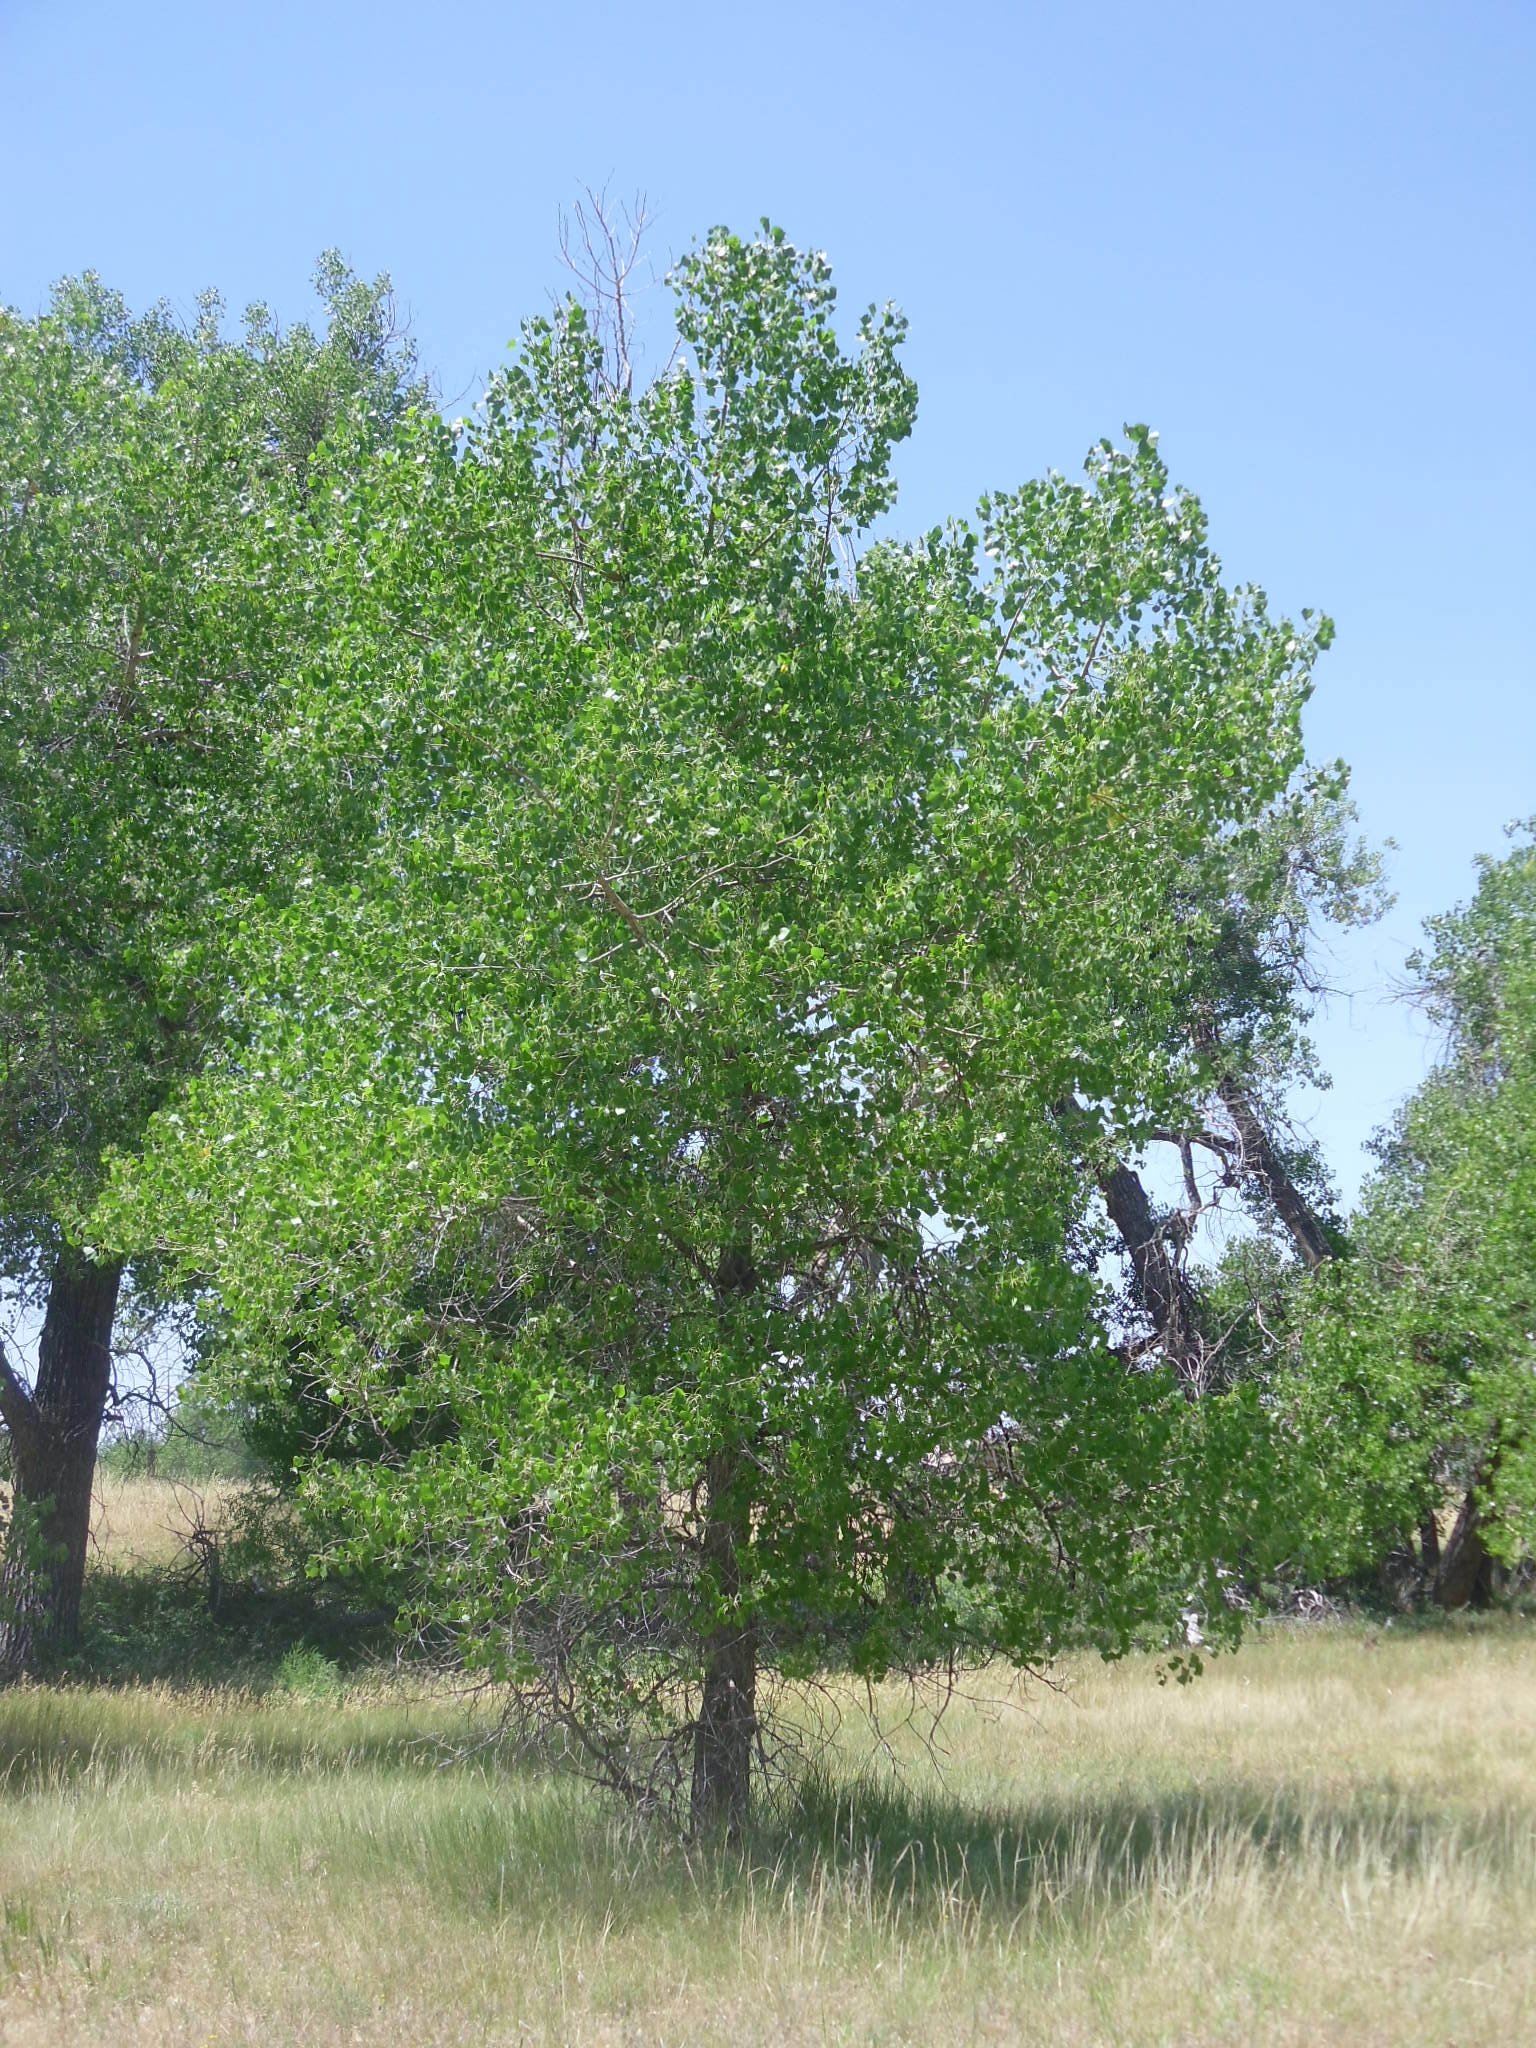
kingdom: Plantae
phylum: Tracheophyta
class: Magnoliopsida
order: Malpighiales
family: Salicaceae
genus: Populus
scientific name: Populus deltoides
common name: Eastern cottonwood
